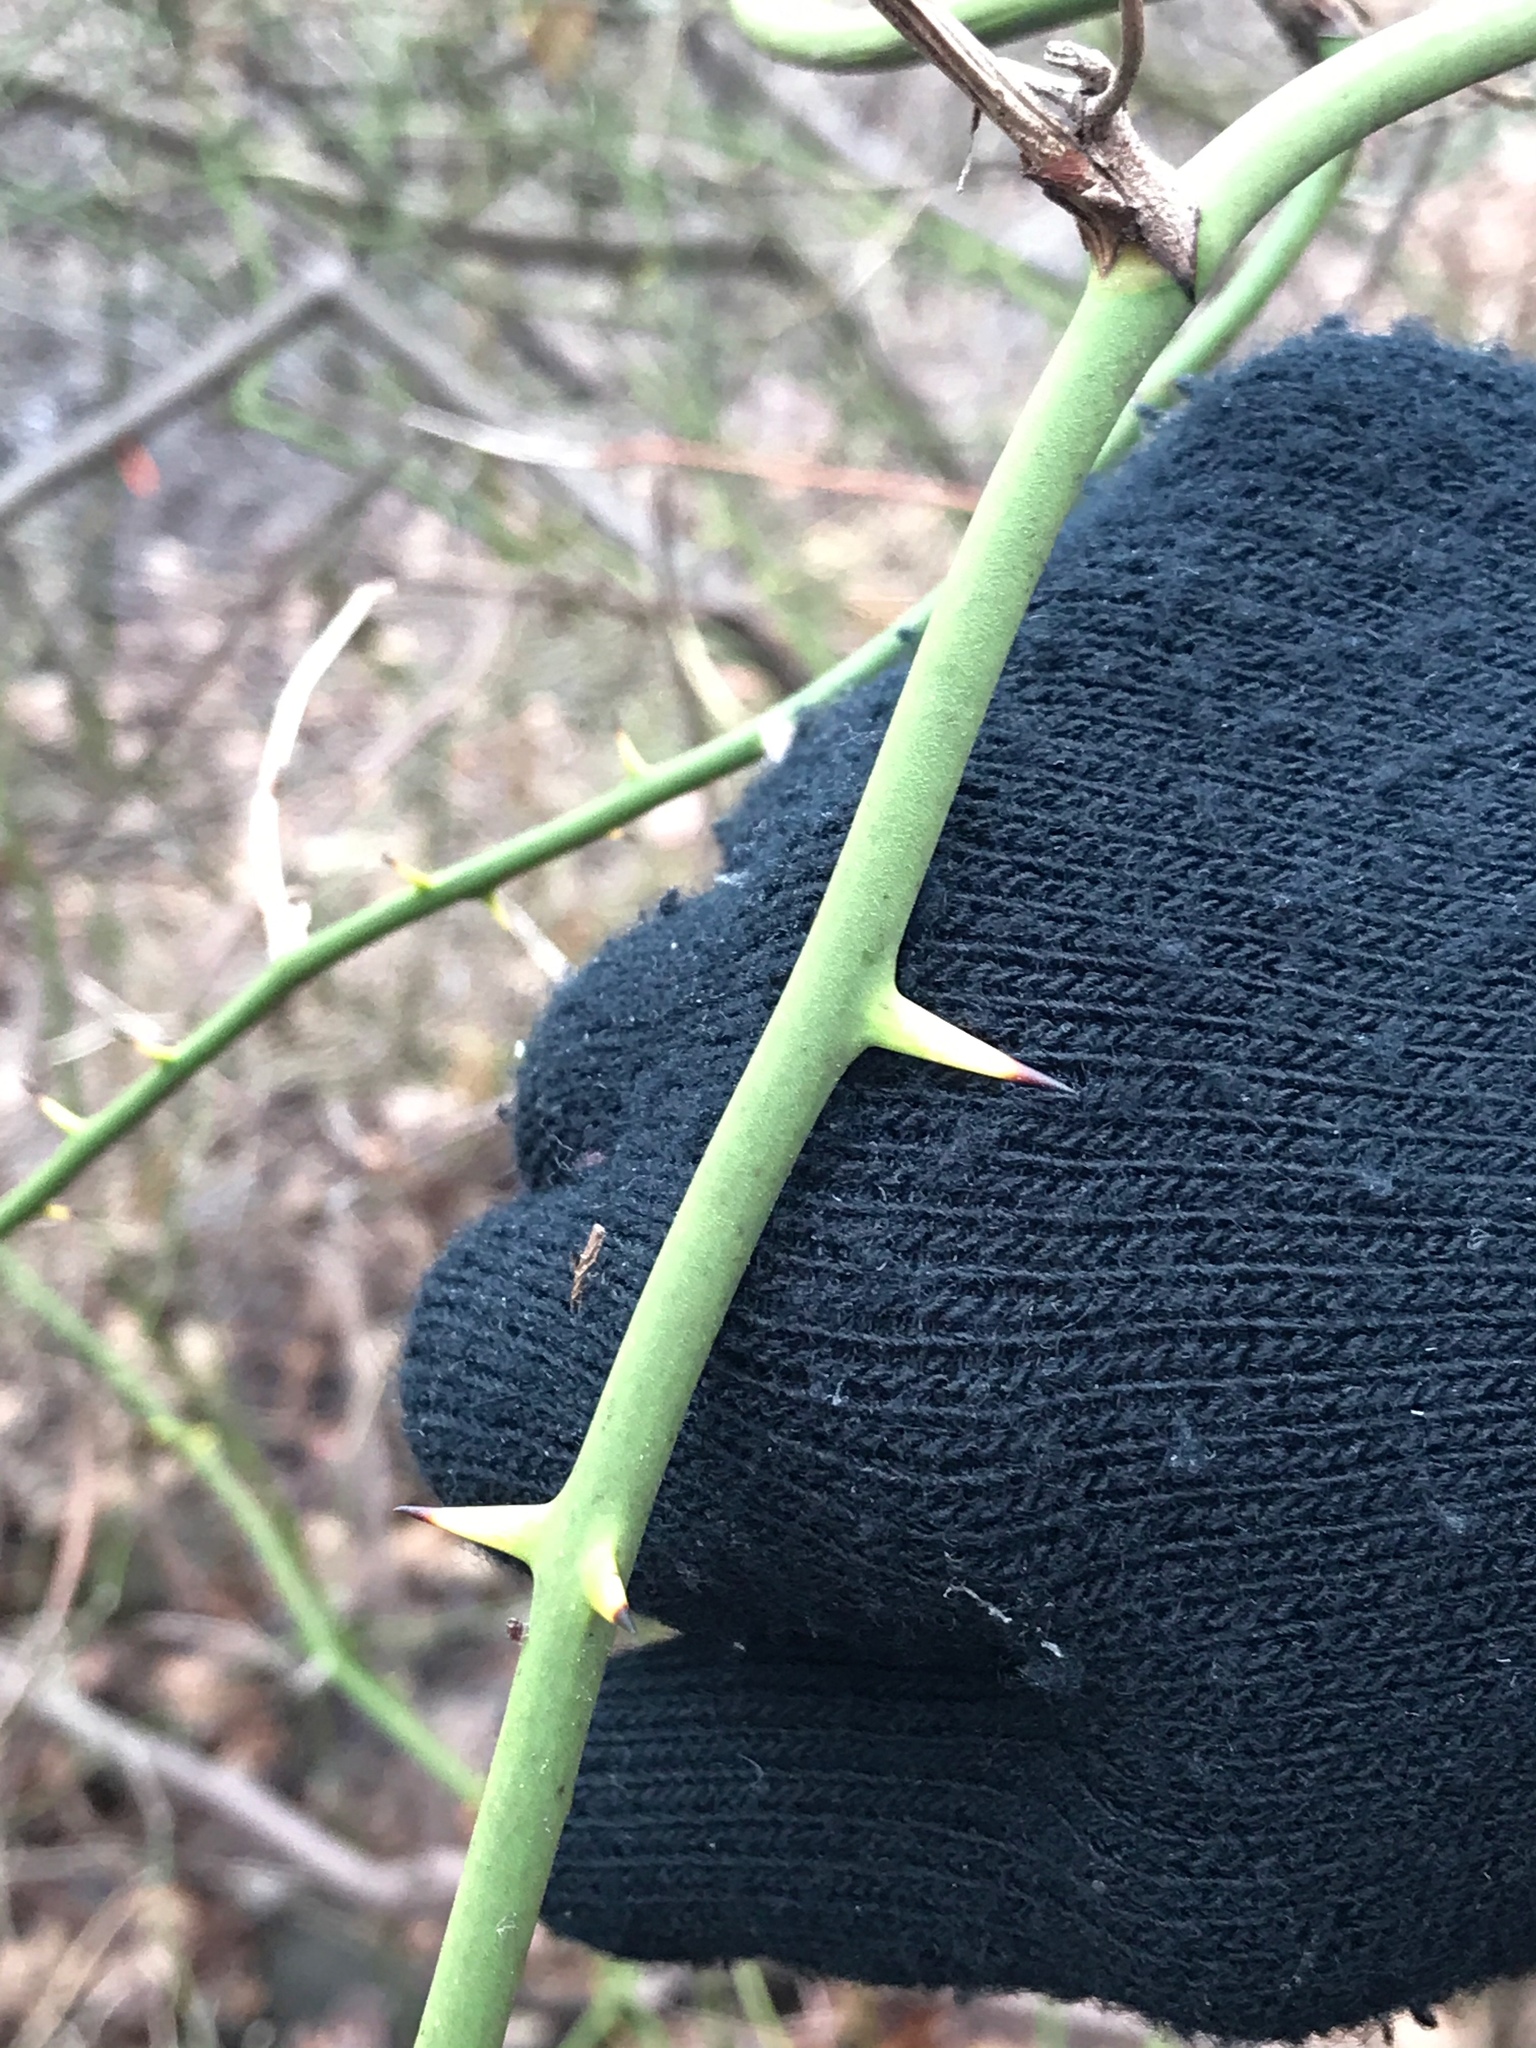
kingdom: Plantae
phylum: Tracheophyta
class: Liliopsida
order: Liliales
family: Smilacaceae
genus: Smilax
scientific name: Smilax rotundifolia
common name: Bullbriar
